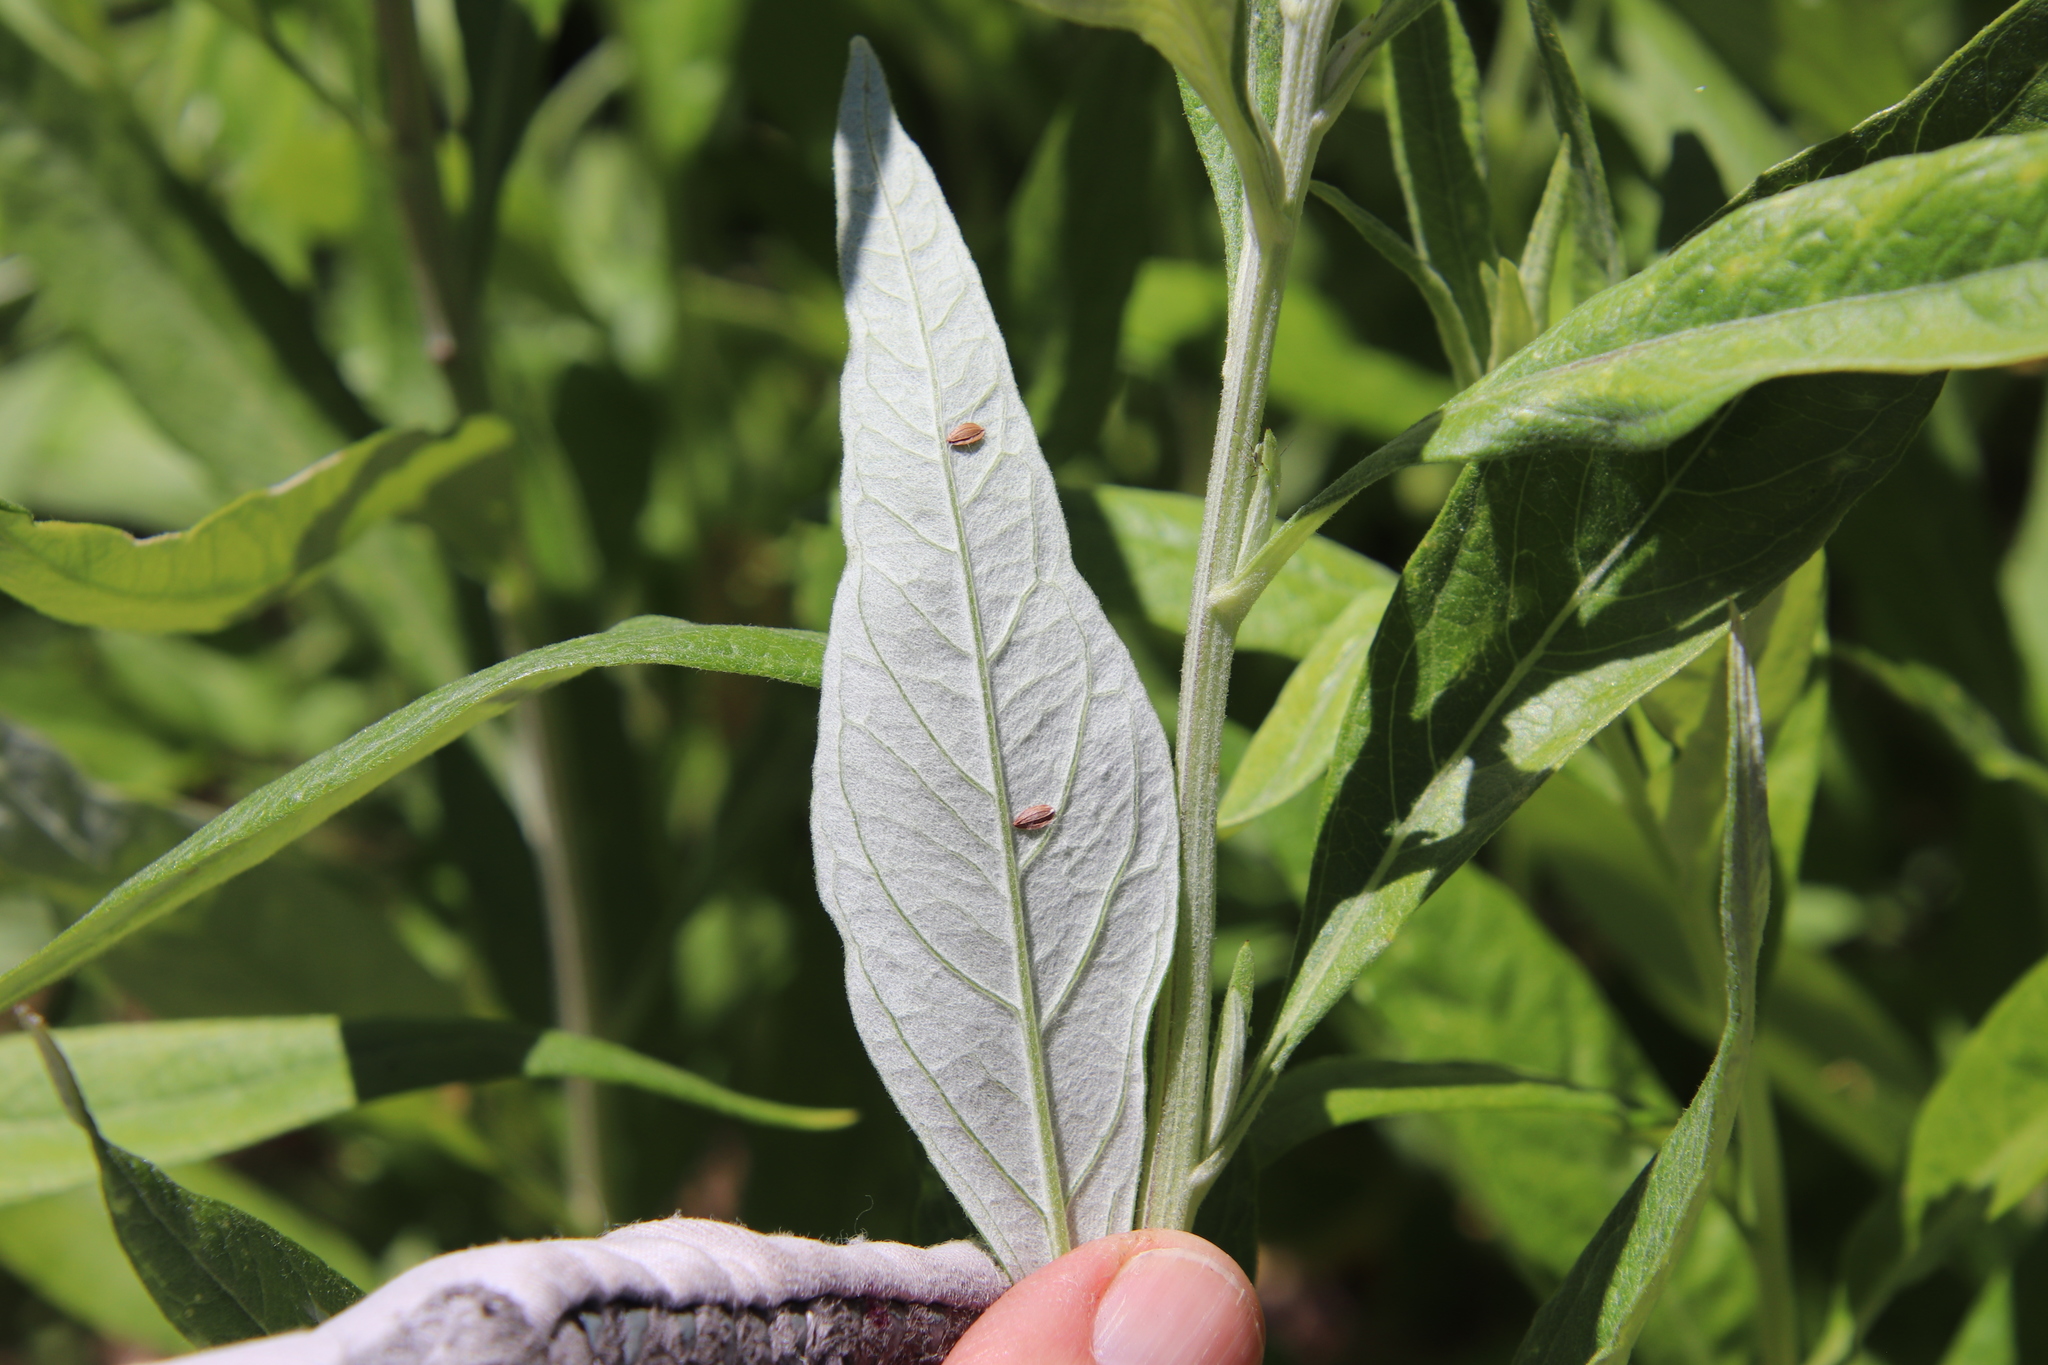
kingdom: Plantae
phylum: Tracheophyta
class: Magnoliopsida
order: Asterales
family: Asteraceae
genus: Artemisia
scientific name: Artemisia douglasiana
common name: Northwest mugwort
